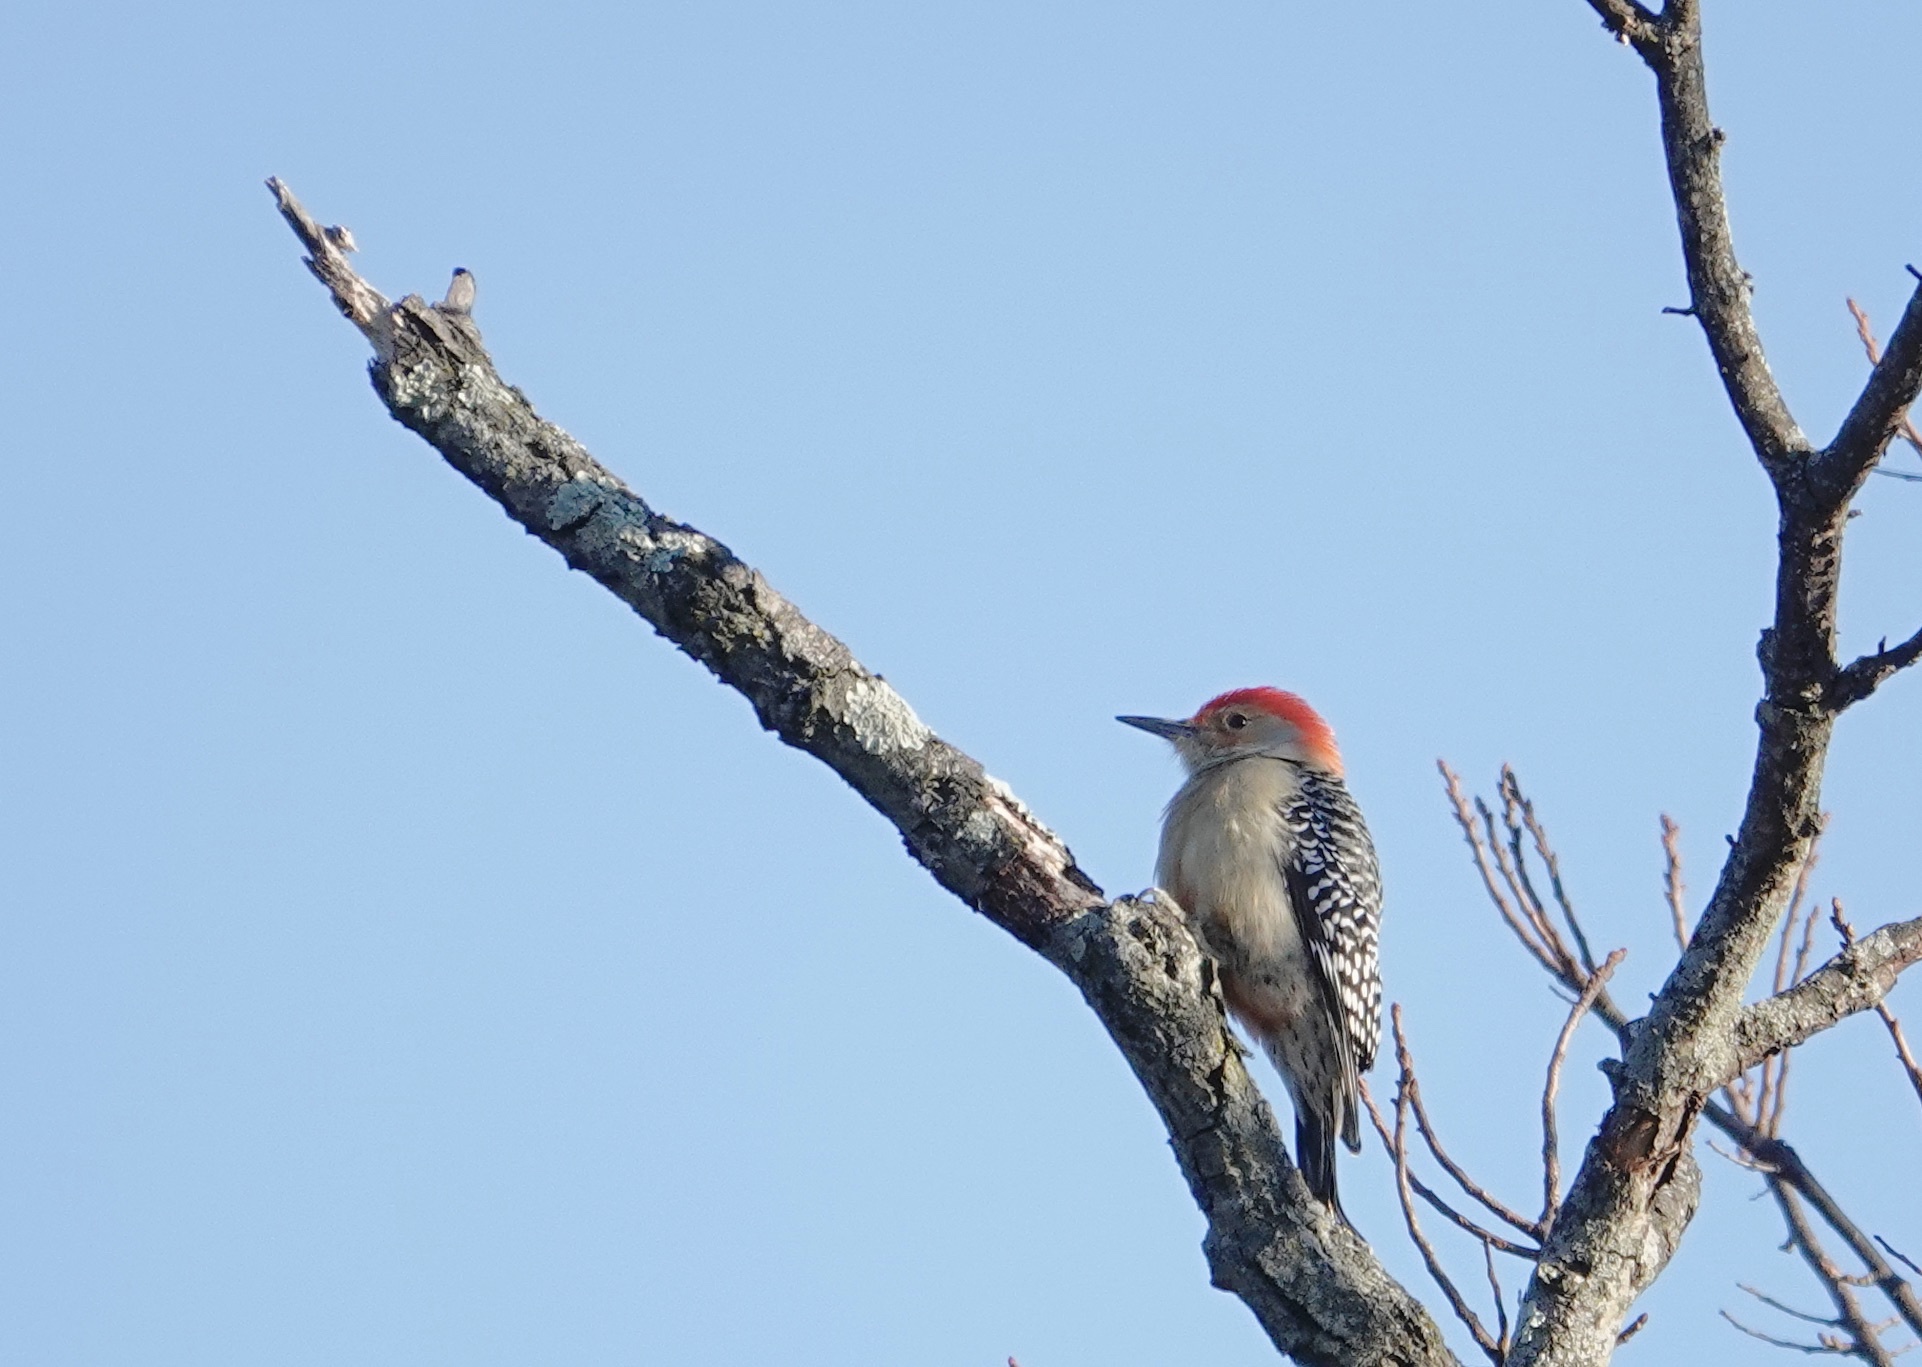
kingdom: Animalia
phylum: Chordata
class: Aves
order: Piciformes
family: Picidae
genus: Melanerpes
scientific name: Melanerpes carolinus
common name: Red-bellied woodpecker
